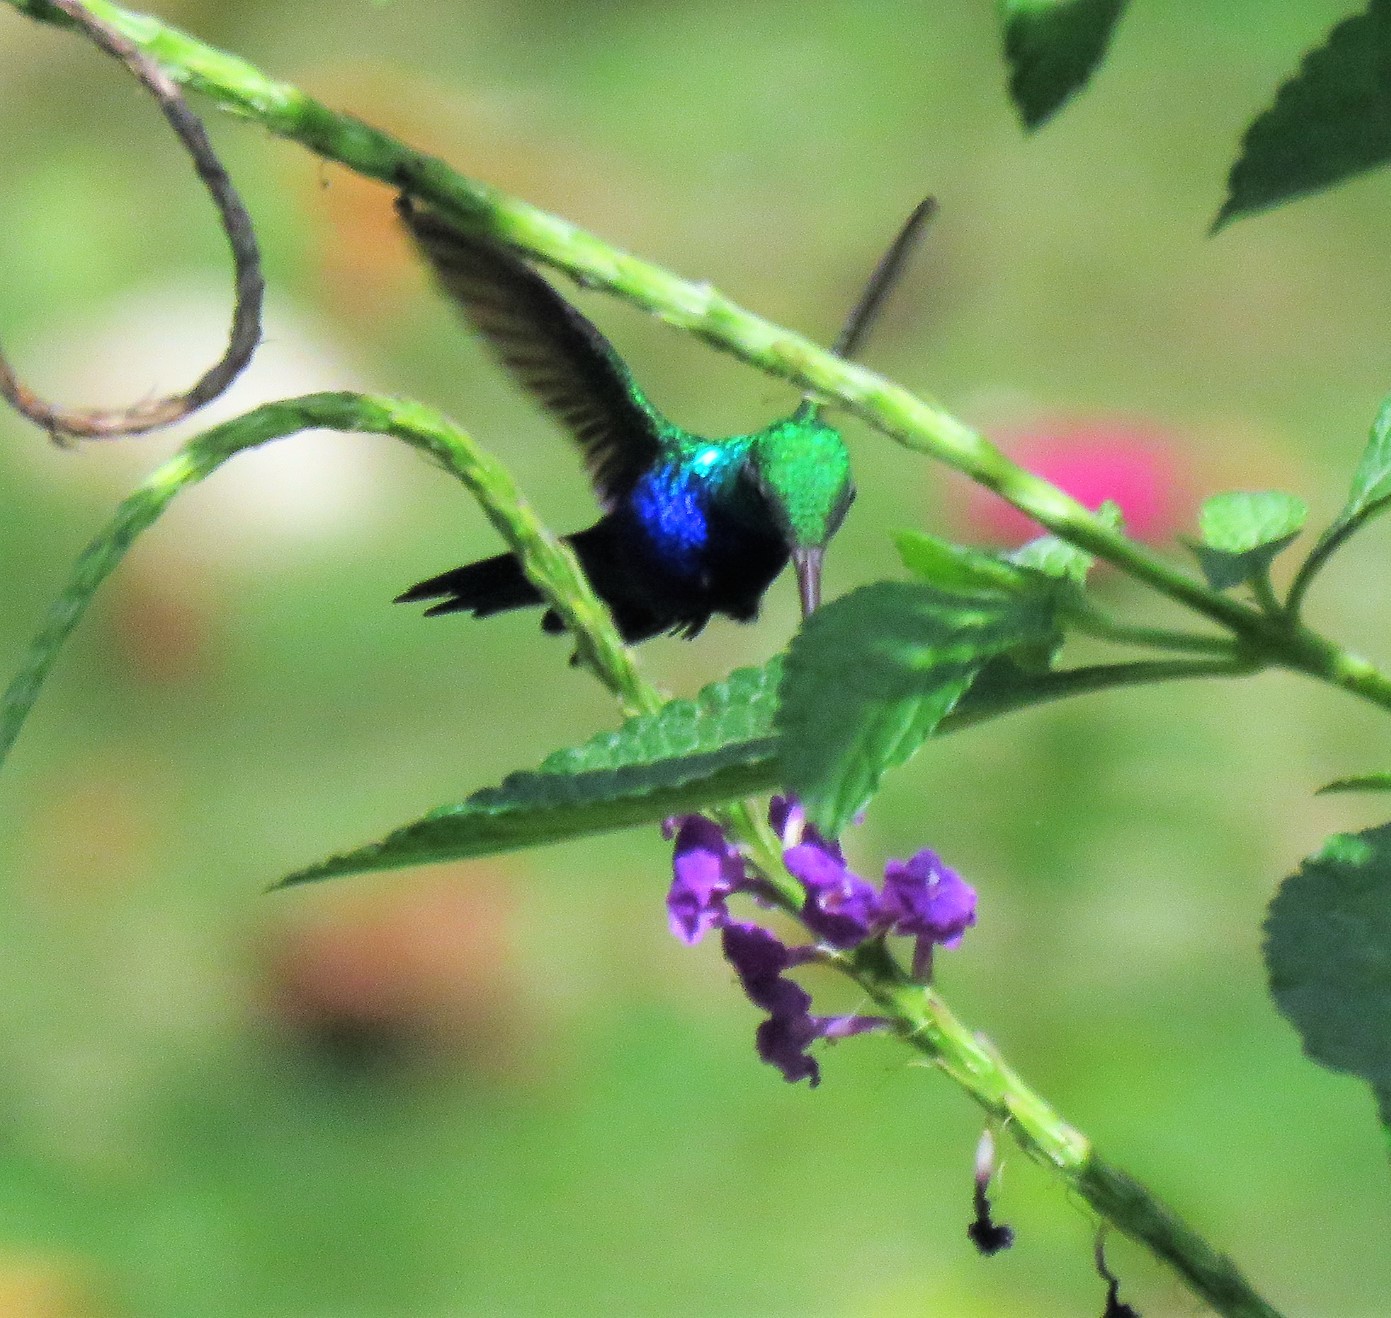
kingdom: Animalia
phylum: Chordata
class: Aves
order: Apodiformes
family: Trochilidae
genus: Chlorestes
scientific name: Chlorestes julie
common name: Violet-bellied hummingbird
